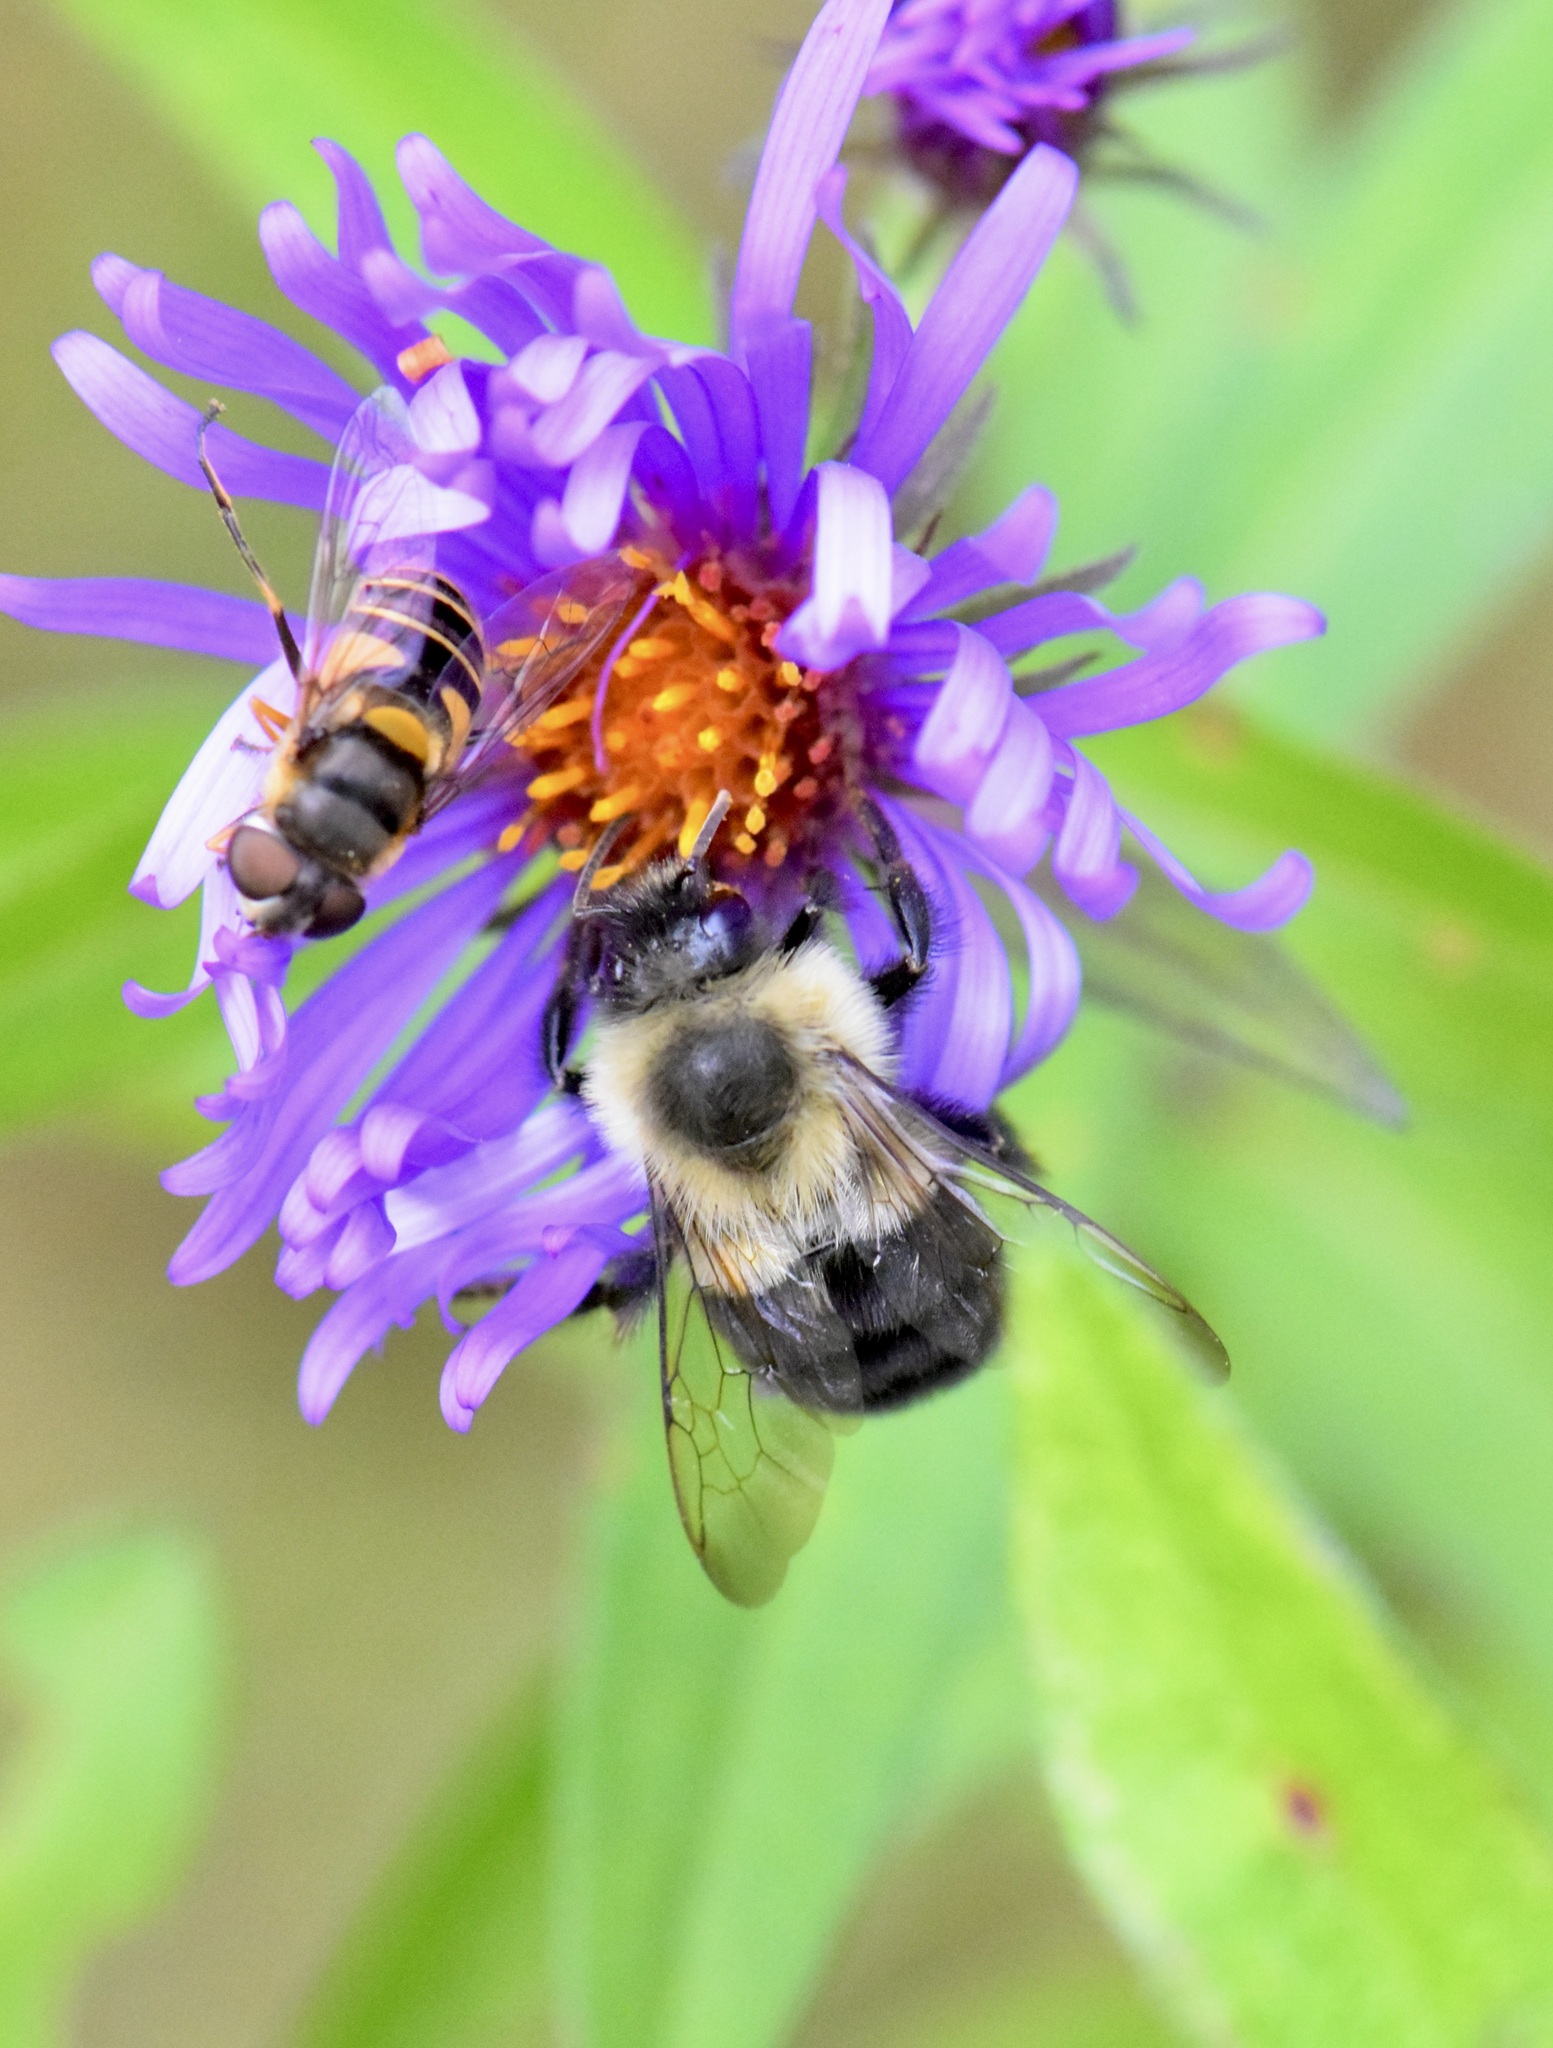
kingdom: Animalia
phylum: Arthropoda
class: Insecta
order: Hymenoptera
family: Apidae
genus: Bombus
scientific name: Bombus impatiens
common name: Common eastern bumble bee
